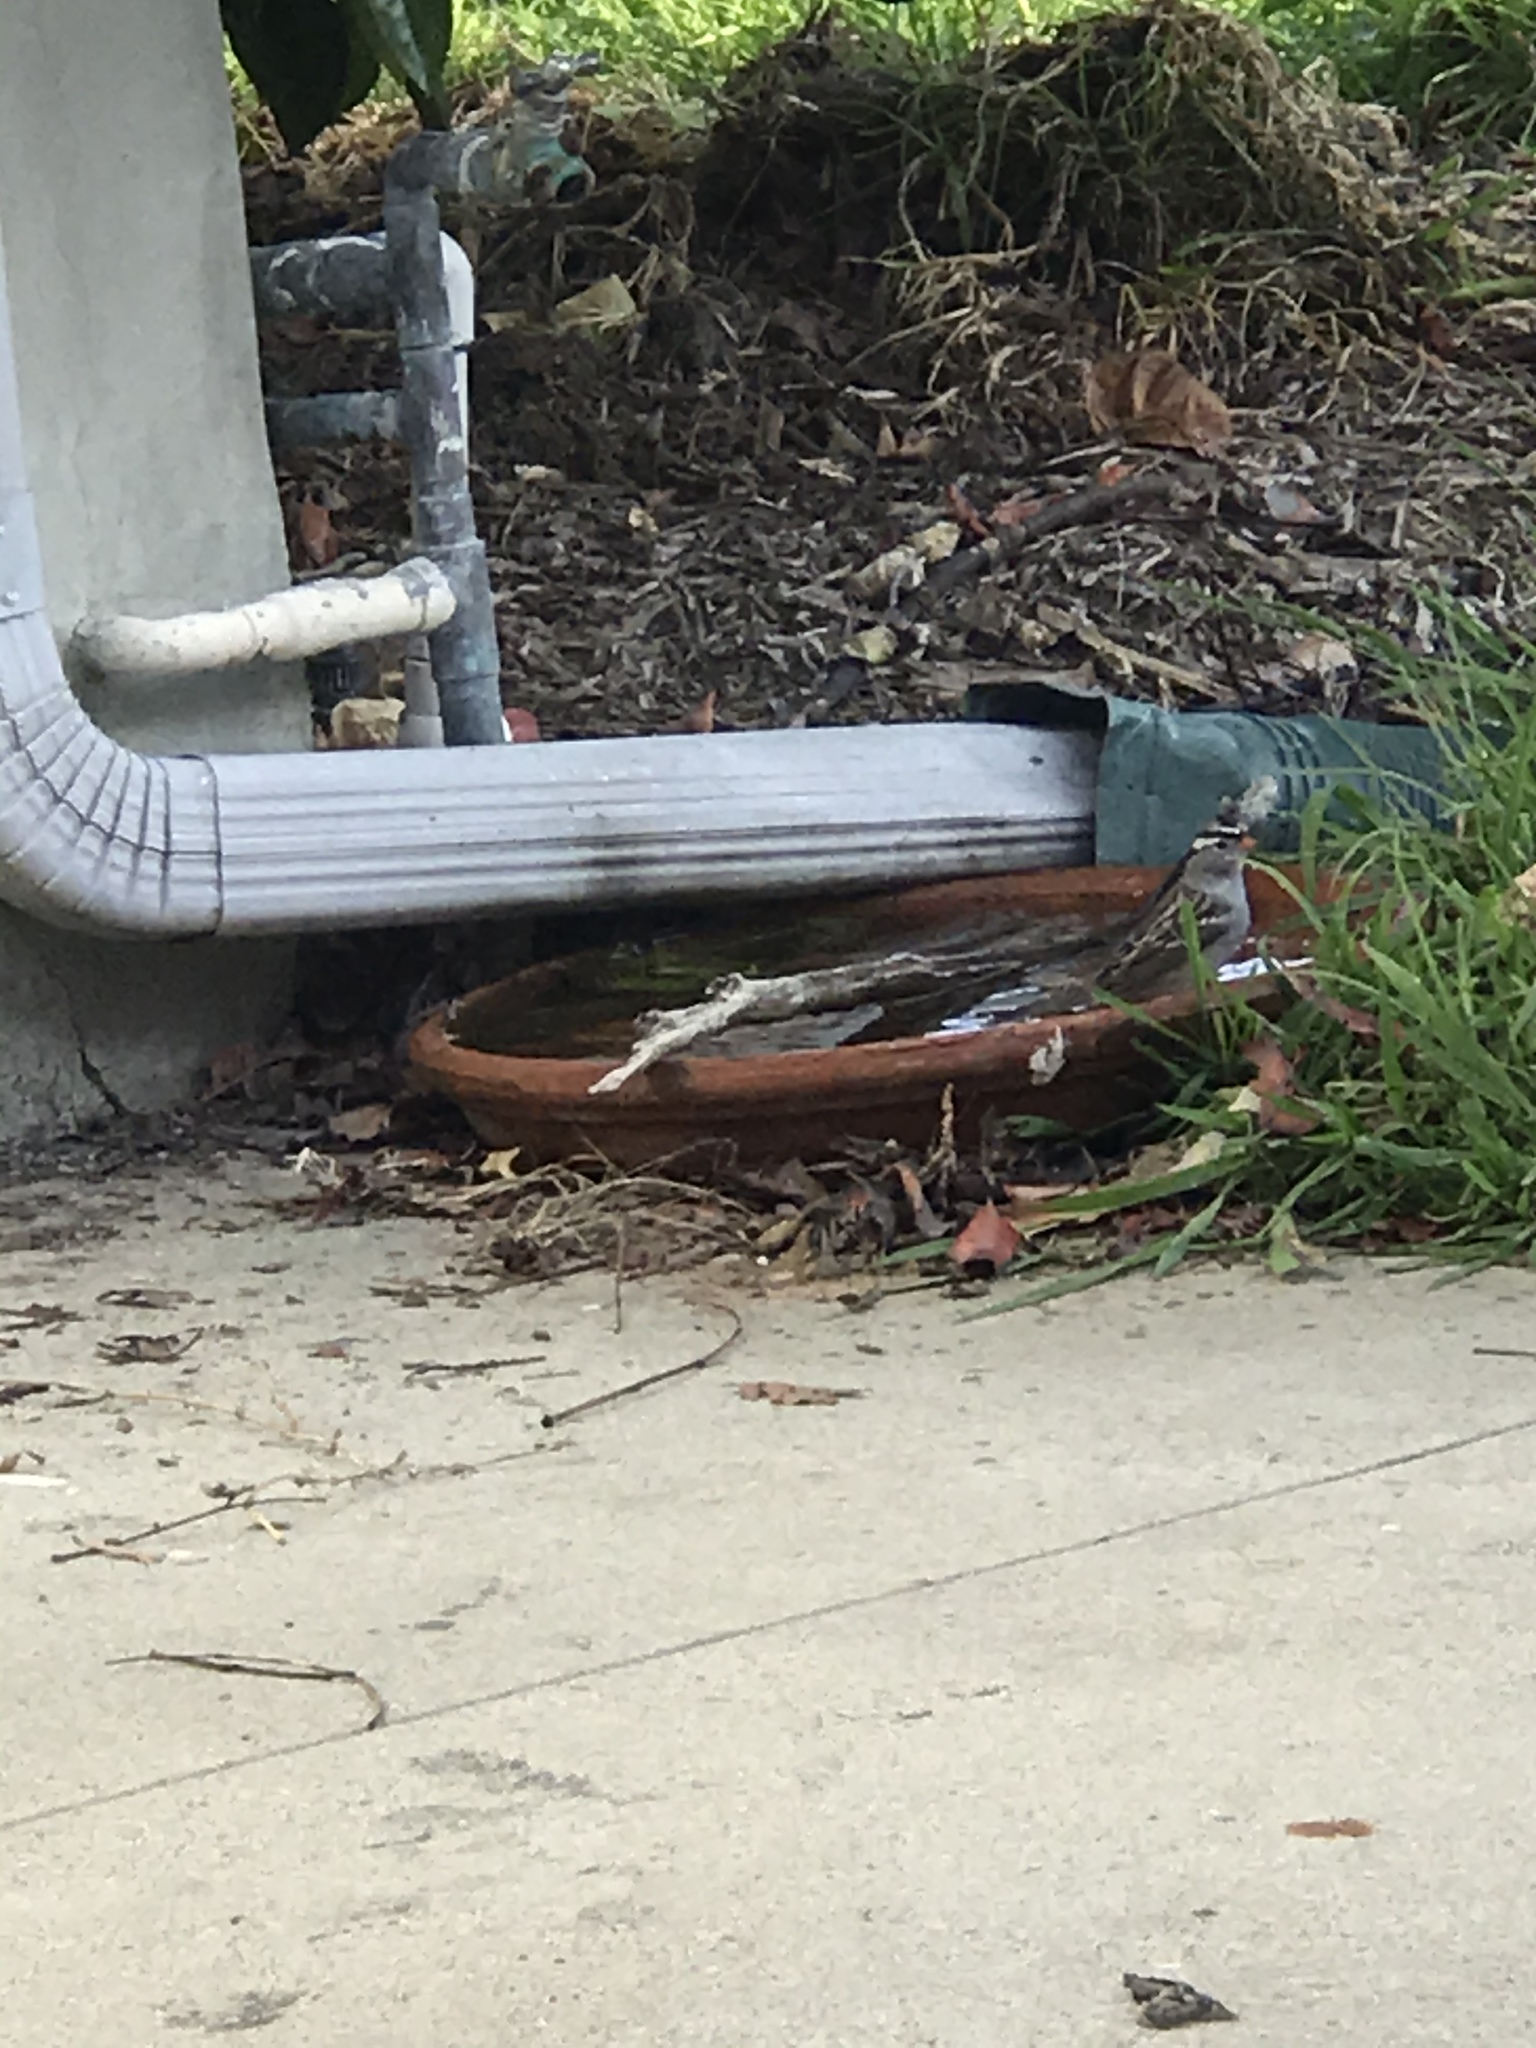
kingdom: Animalia
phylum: Chordata
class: Aves
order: Passeriformes
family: Passerellidae
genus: Zonotrichia
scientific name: Zonotrichia leucophrys
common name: White-crowned sparrow
